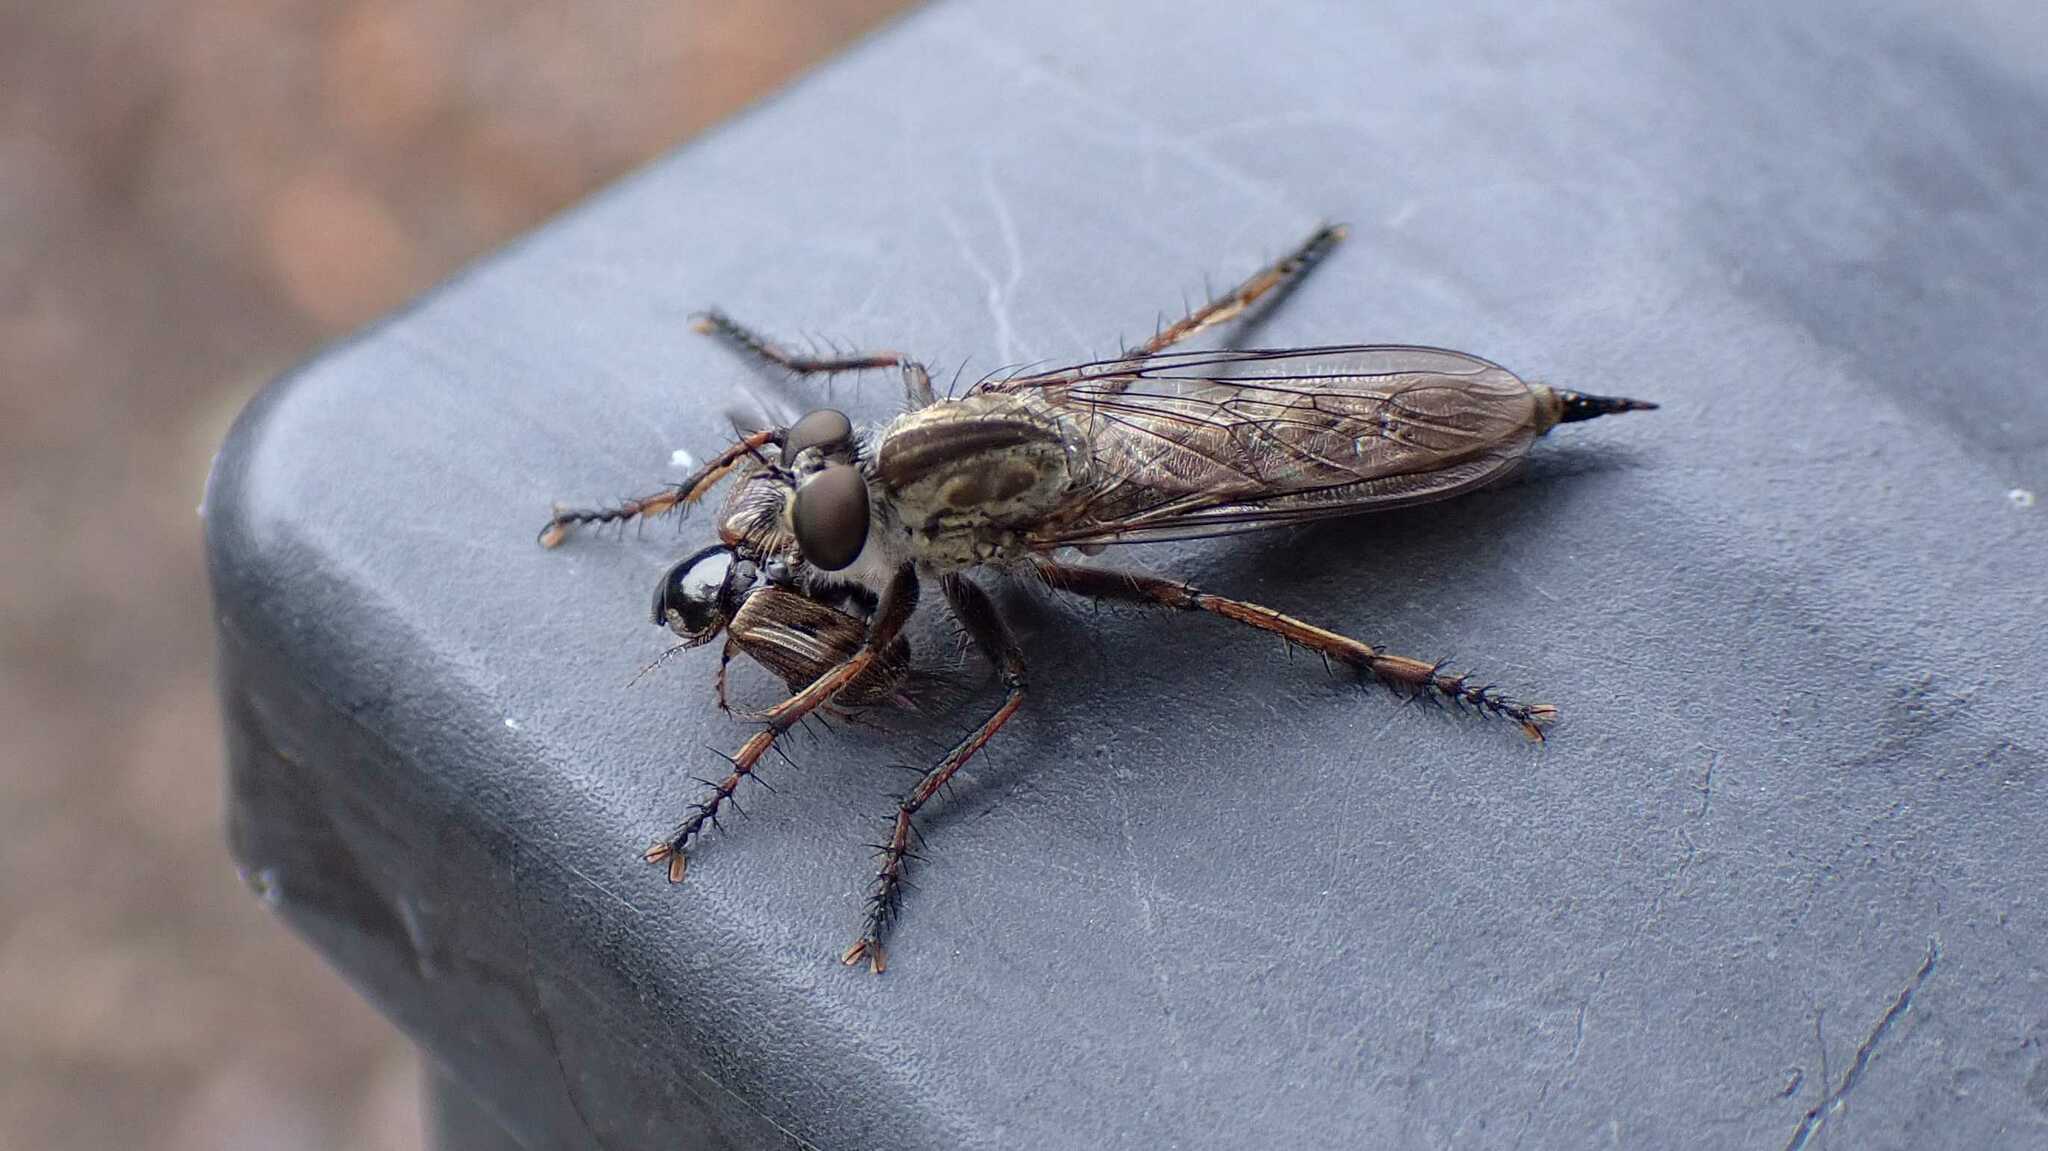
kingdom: Animalia
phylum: Arthropoda
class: Insecta
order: Coleoptera
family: Scarabaeidae
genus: Nimbus
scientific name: Nimbus contaminatus
